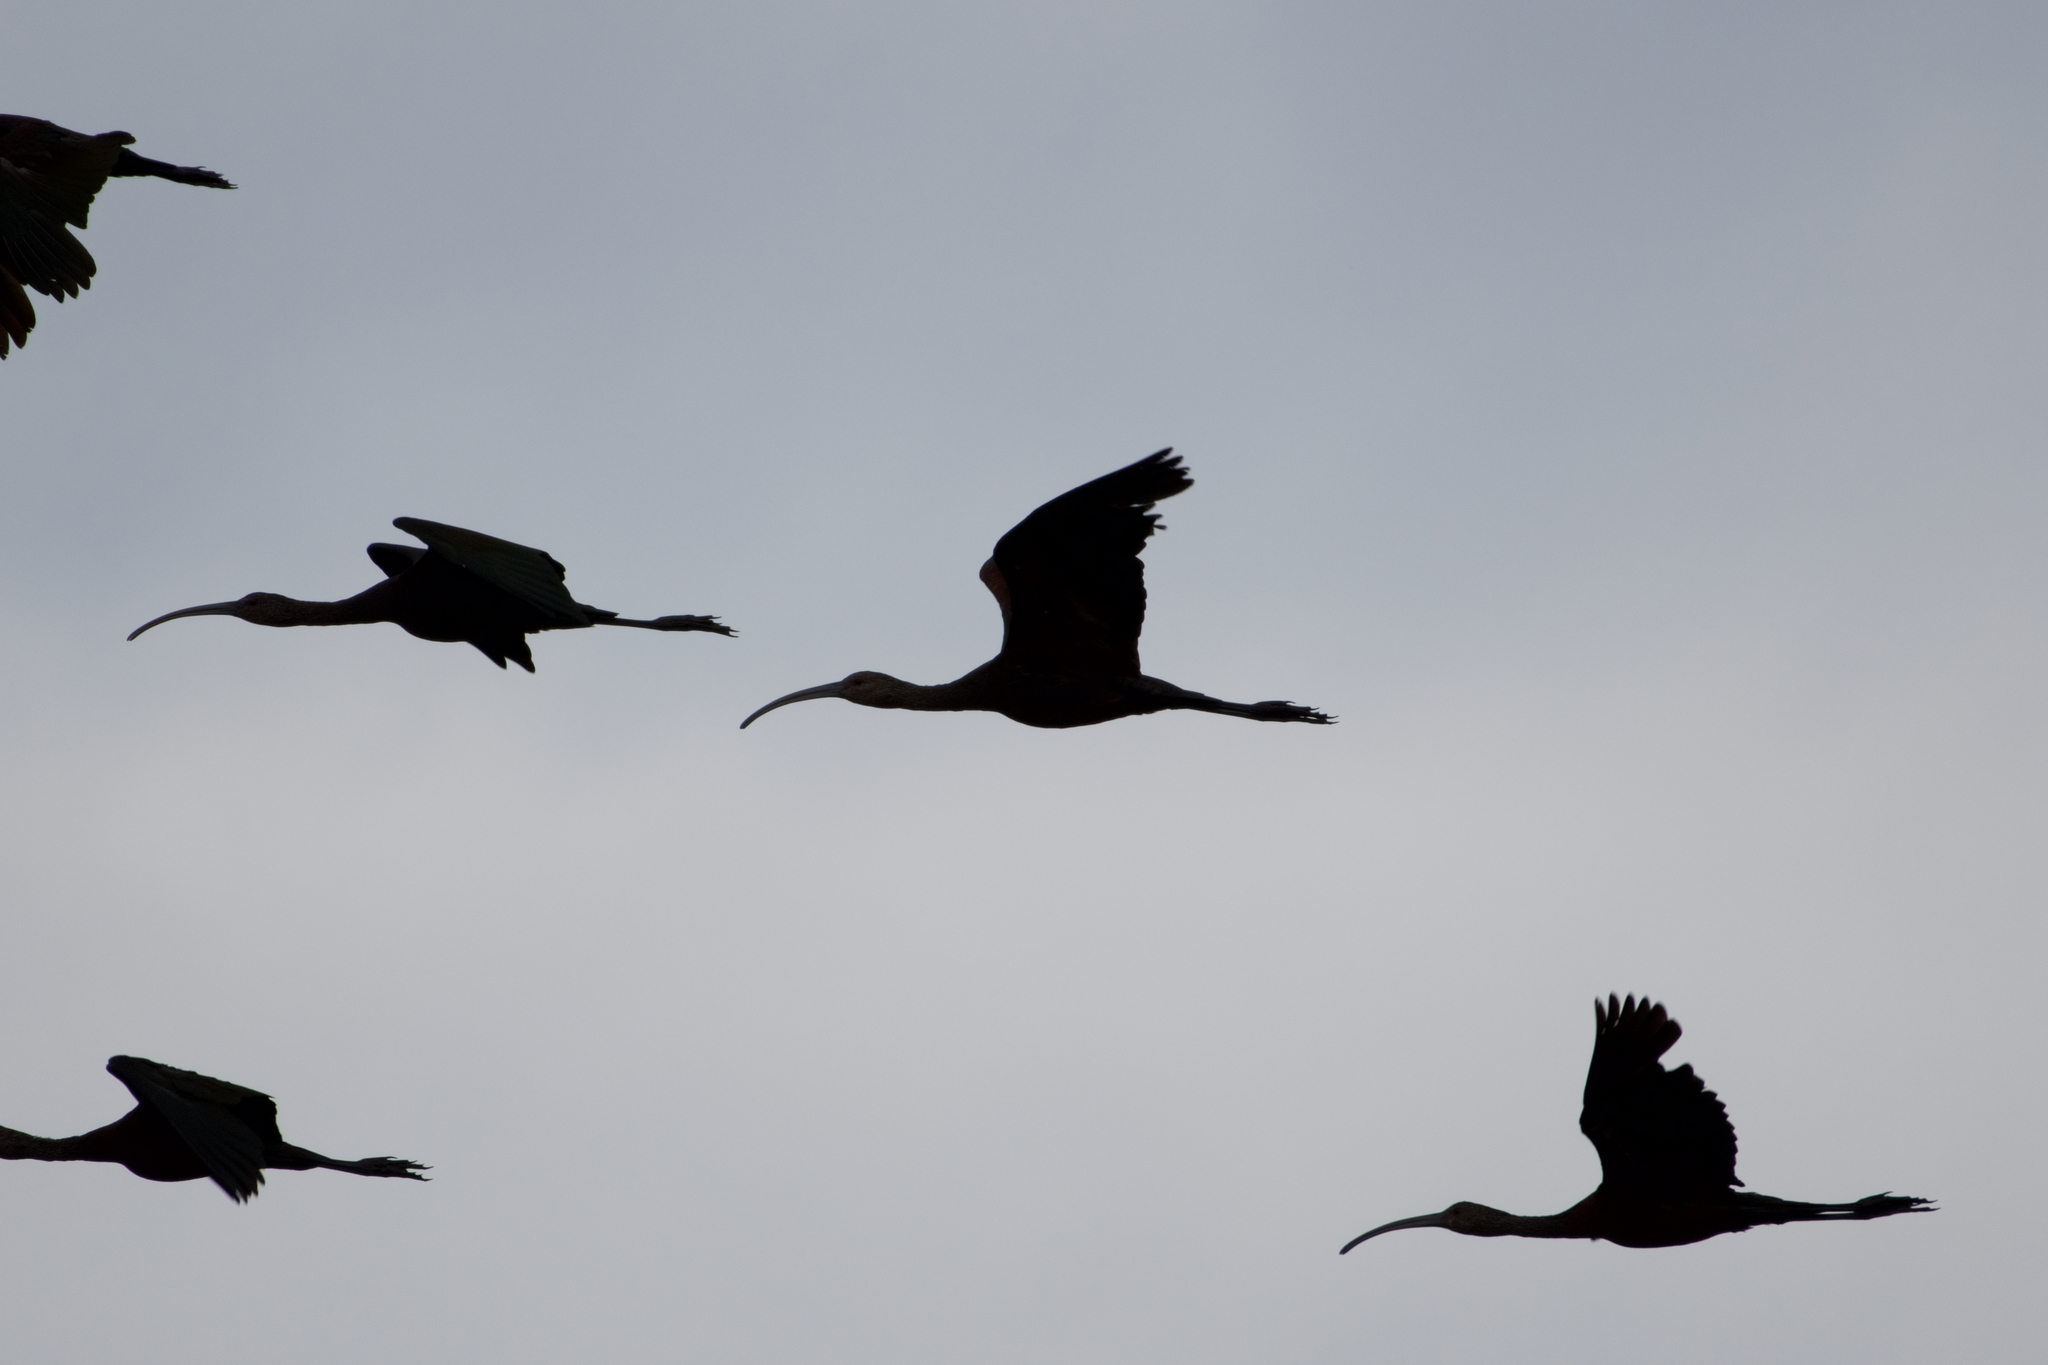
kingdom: Animalia
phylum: Chordata
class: Aves
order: Pelecaniformes
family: Threskiornithidae
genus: Plegadis
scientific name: Plegadis chihi
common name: White-faced ibis
